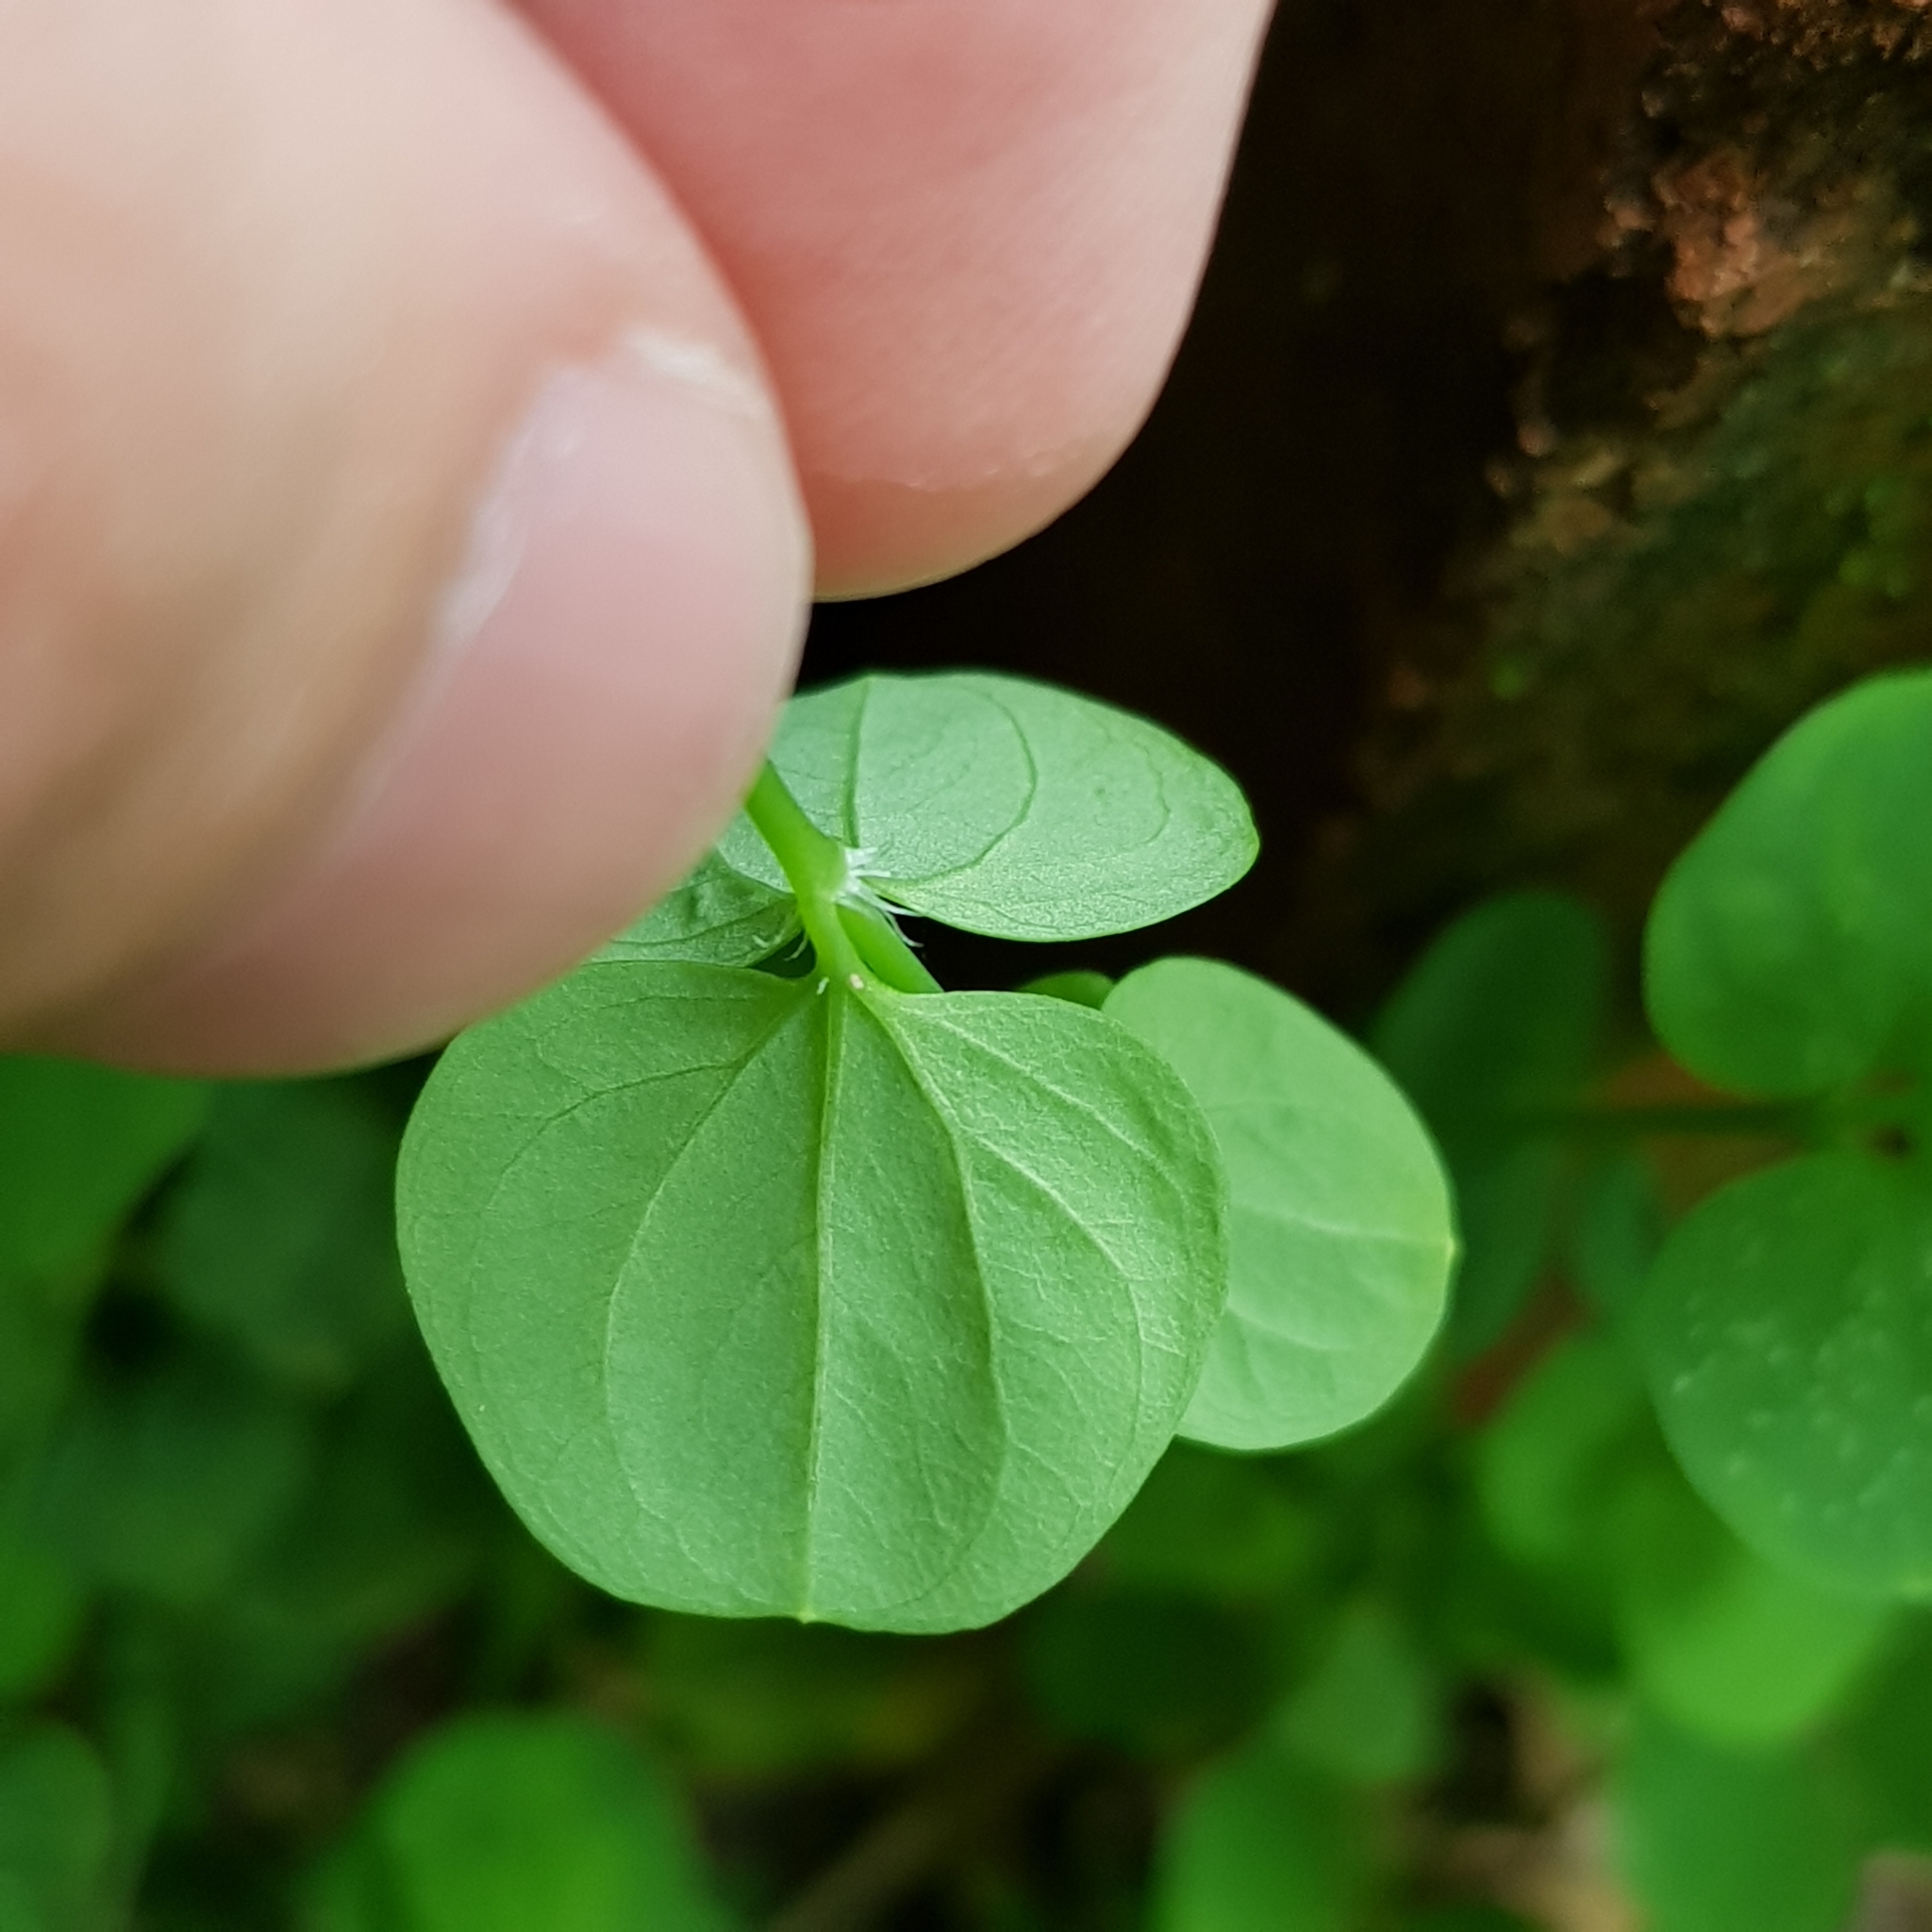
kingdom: Plantae
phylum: Tracheophyta
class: Magnoliopsida
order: Caryophyllales
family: Caryophyllaceae
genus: Drymaria
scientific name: Drymaria cordata
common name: Whitesnow
